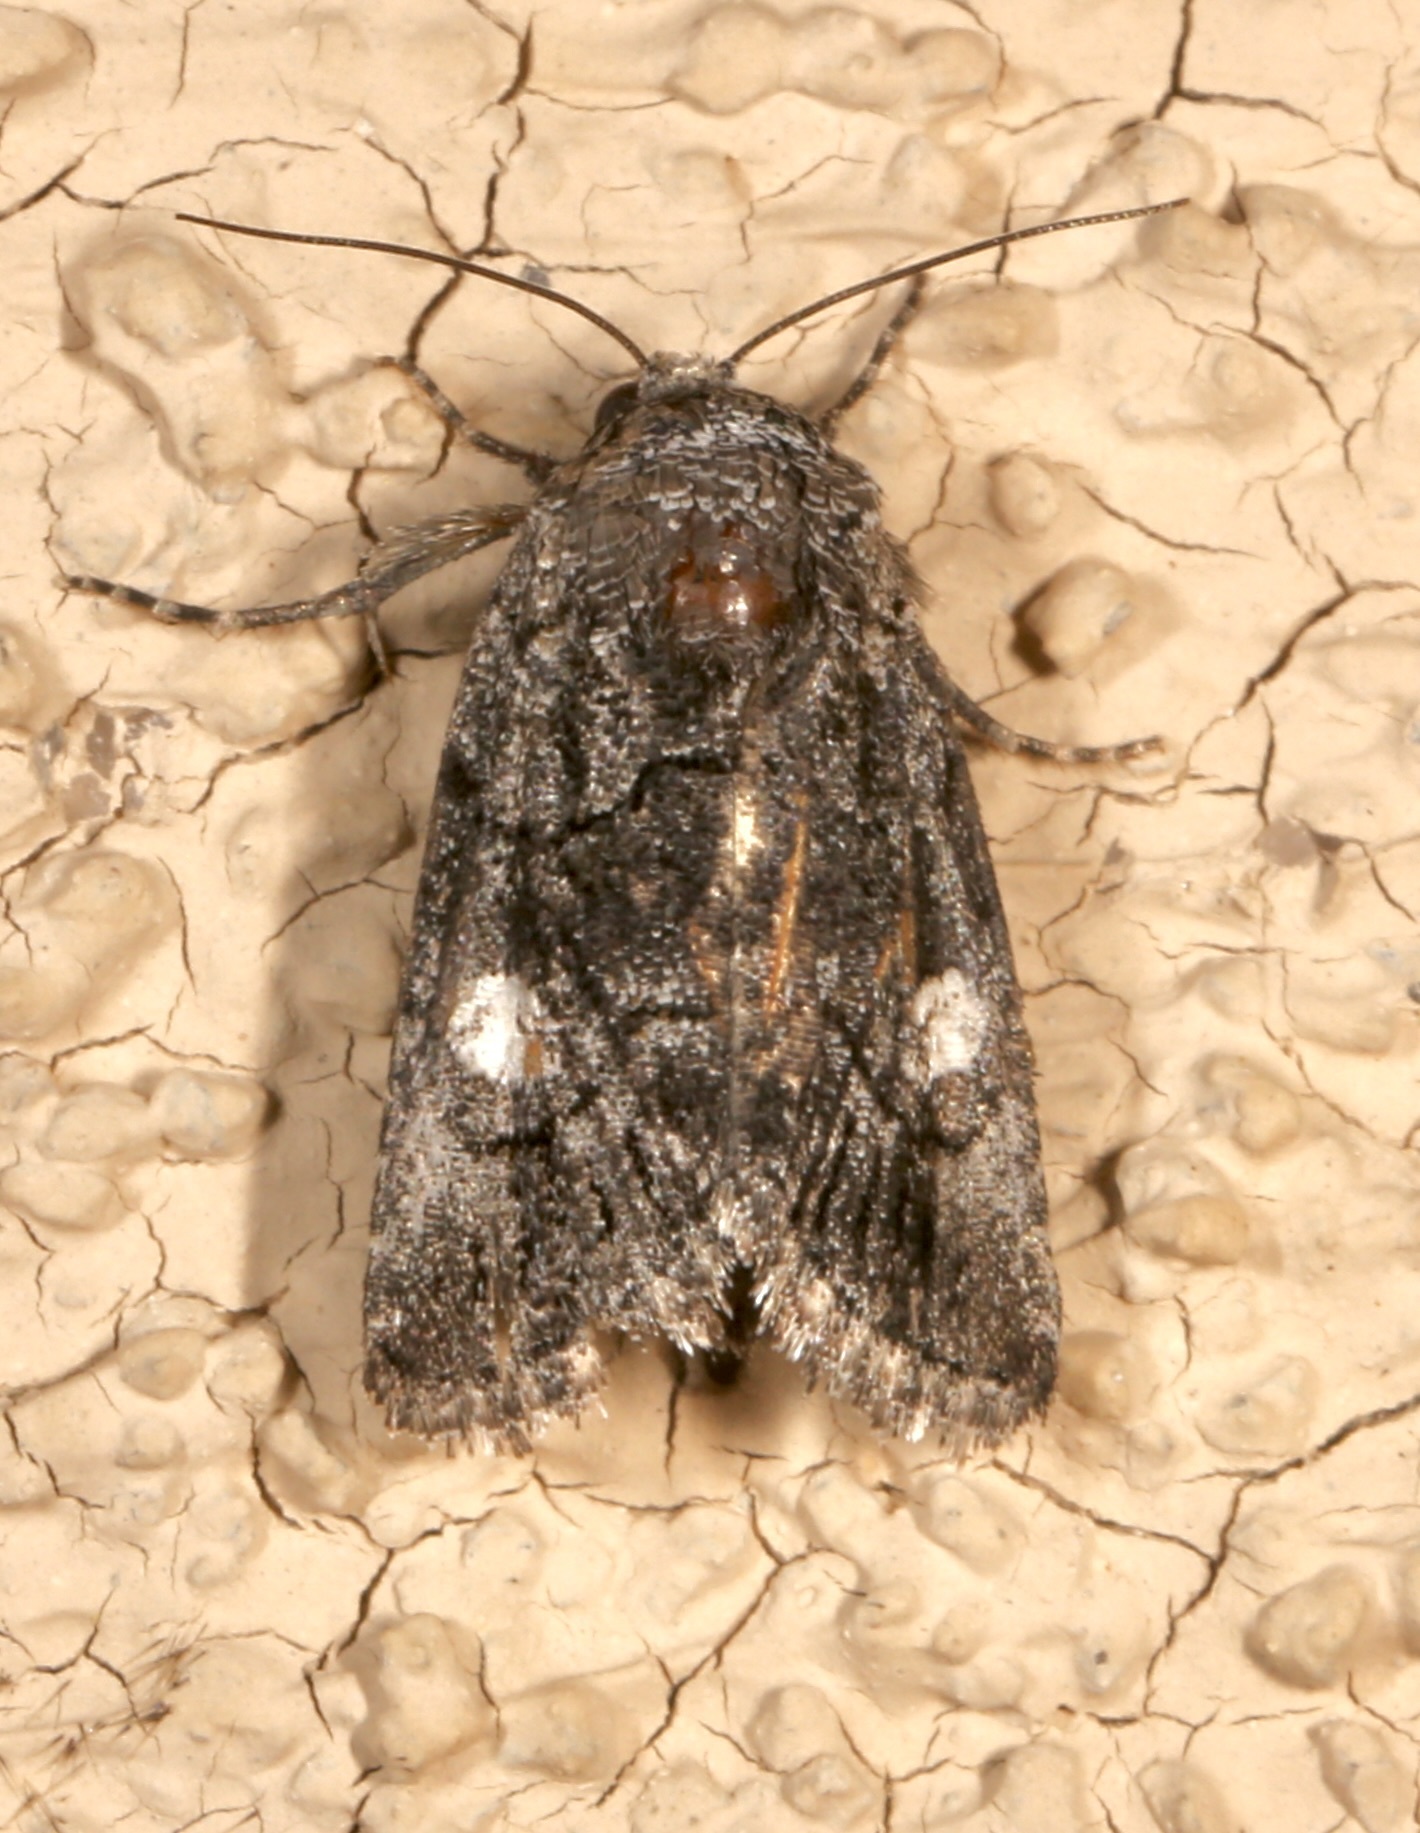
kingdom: Animalia
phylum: Arthropoda
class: Insecta
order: Lepidoptera
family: Noctuidae
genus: Copanarta
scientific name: Copanarta aurea
